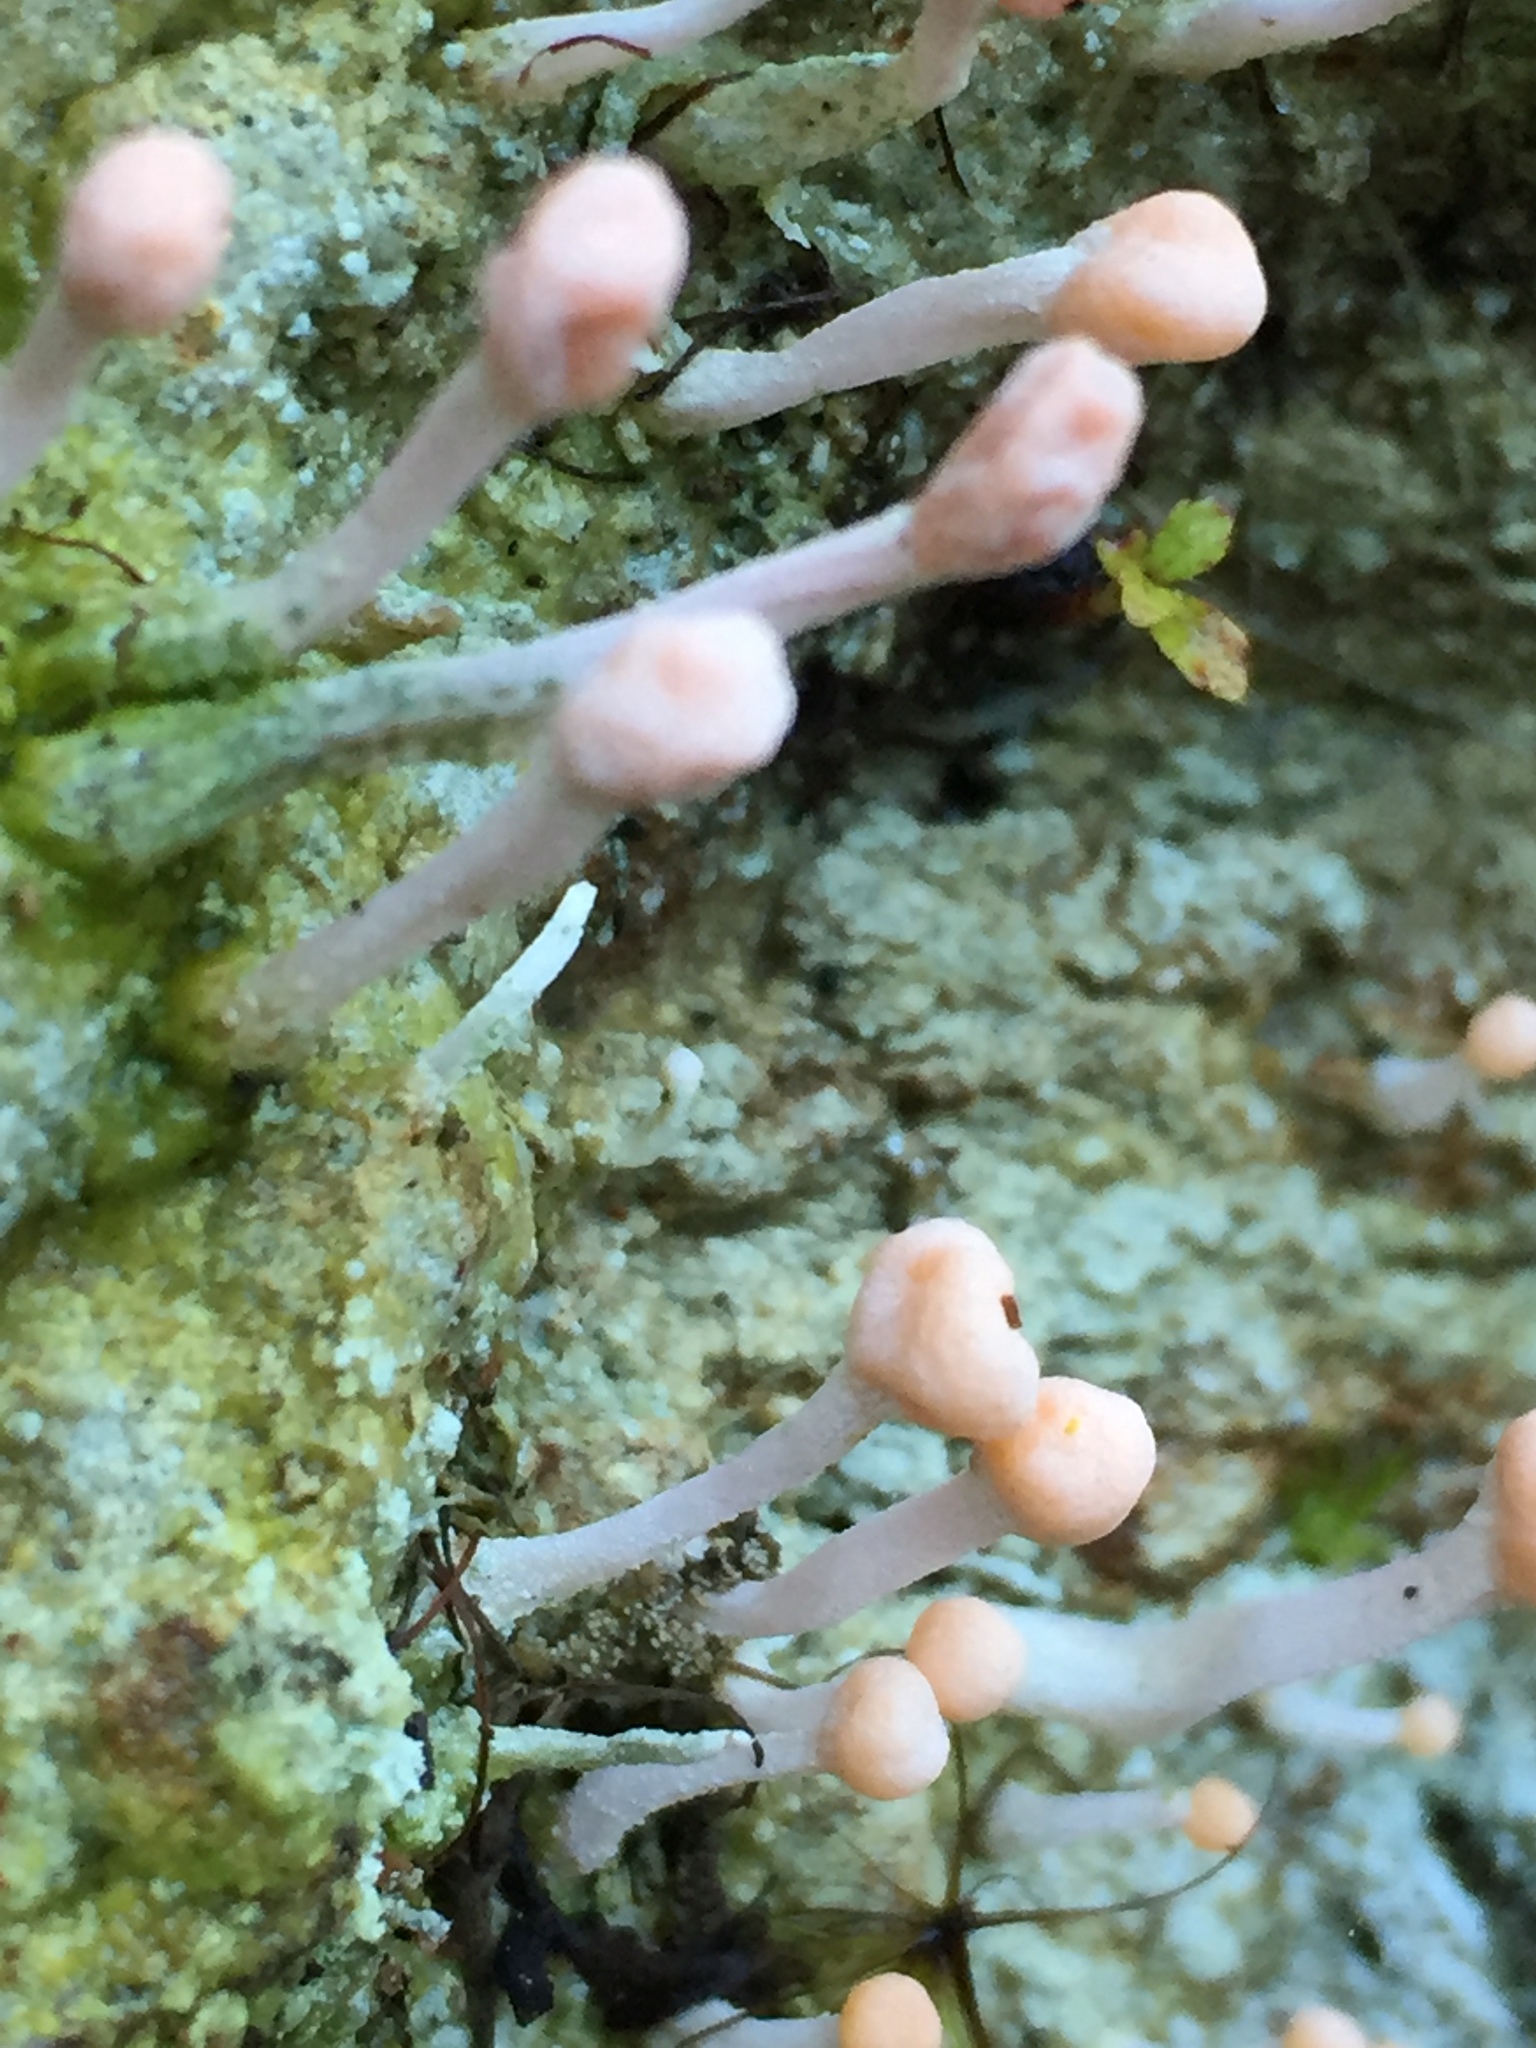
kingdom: Fungi
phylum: Ascomycota
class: Lecanoromycetes
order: Pertusariales
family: Icmadophilaceae
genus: Dibaeis
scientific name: Dibaeis arcuata
